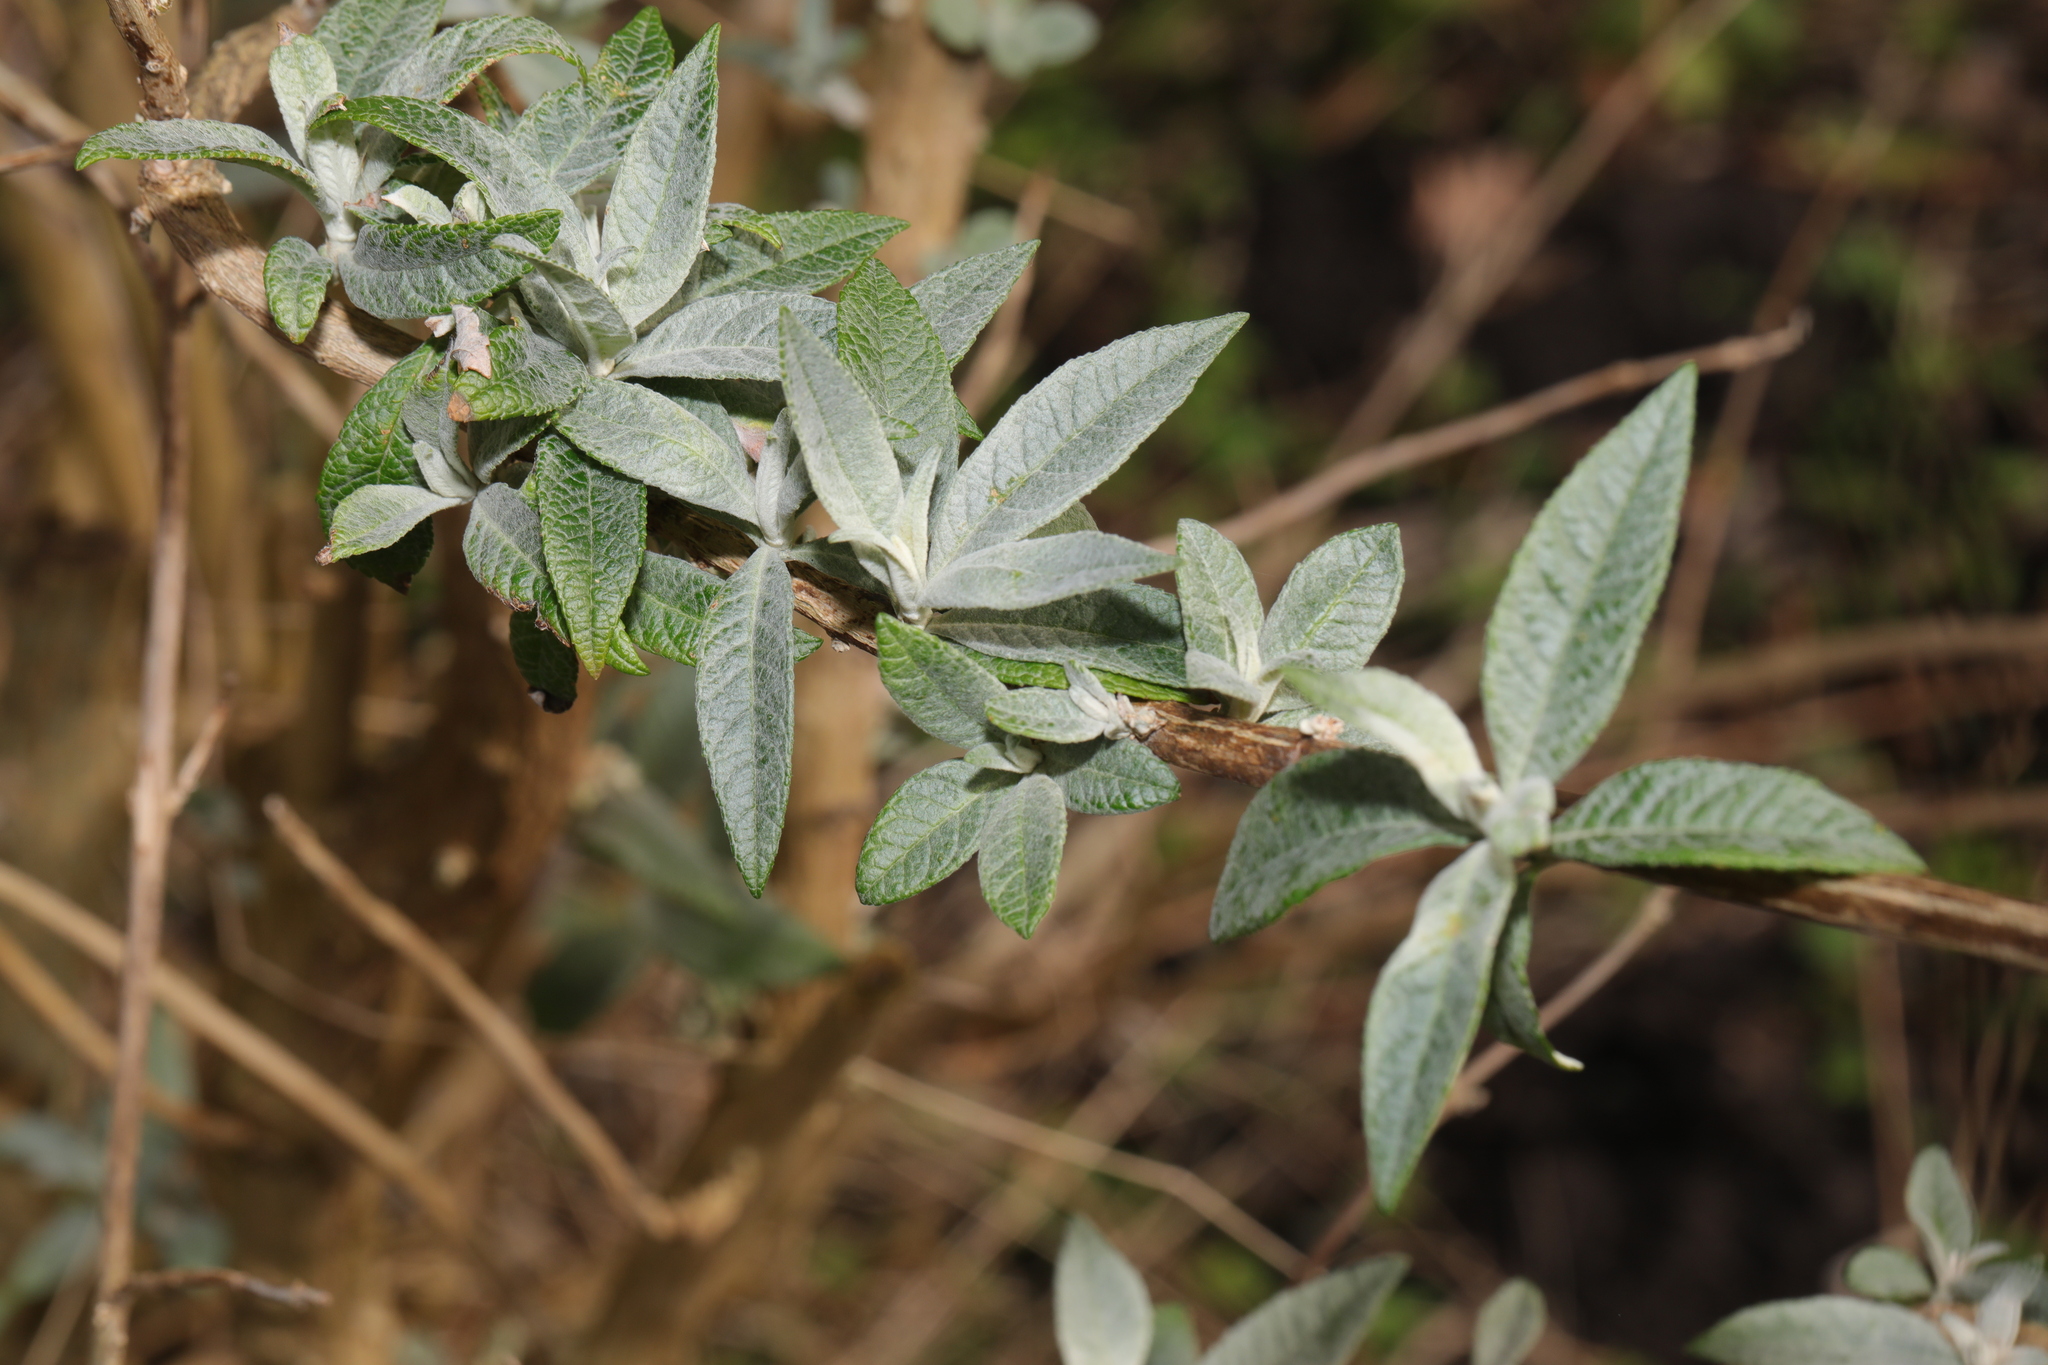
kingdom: Plantae
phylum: Tracheophyta
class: Magnoliopsida
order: Lamiales
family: Scrophulariaceae
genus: Buddleja
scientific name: Buddleja davidii
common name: Butterfly-bush
